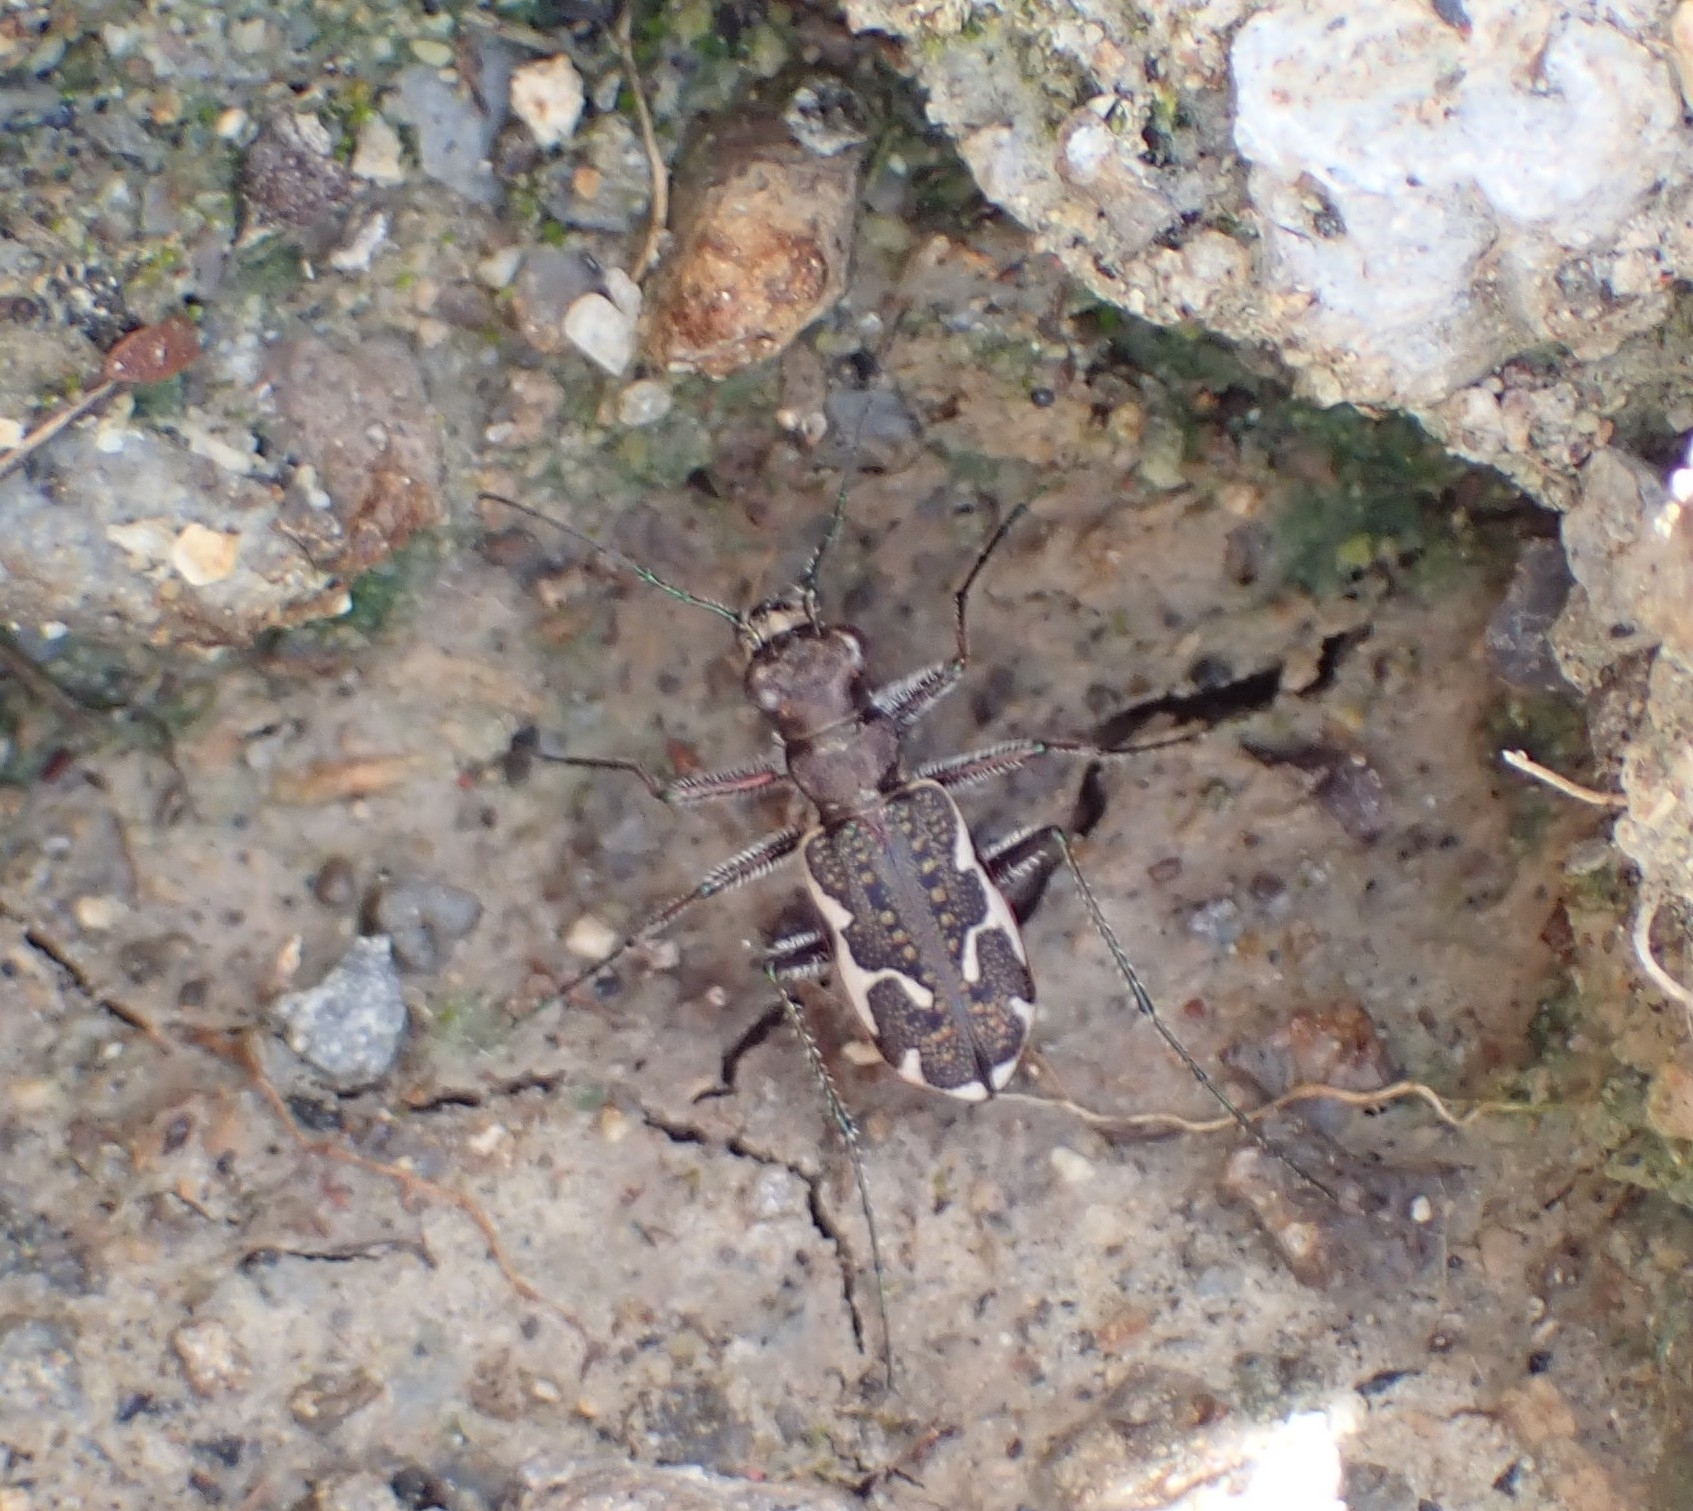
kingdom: Animalia
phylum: Arthropoda
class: Insecta
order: Coleoptera
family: Carabidae
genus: Neocicindela
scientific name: Neocicindela tuberculata
